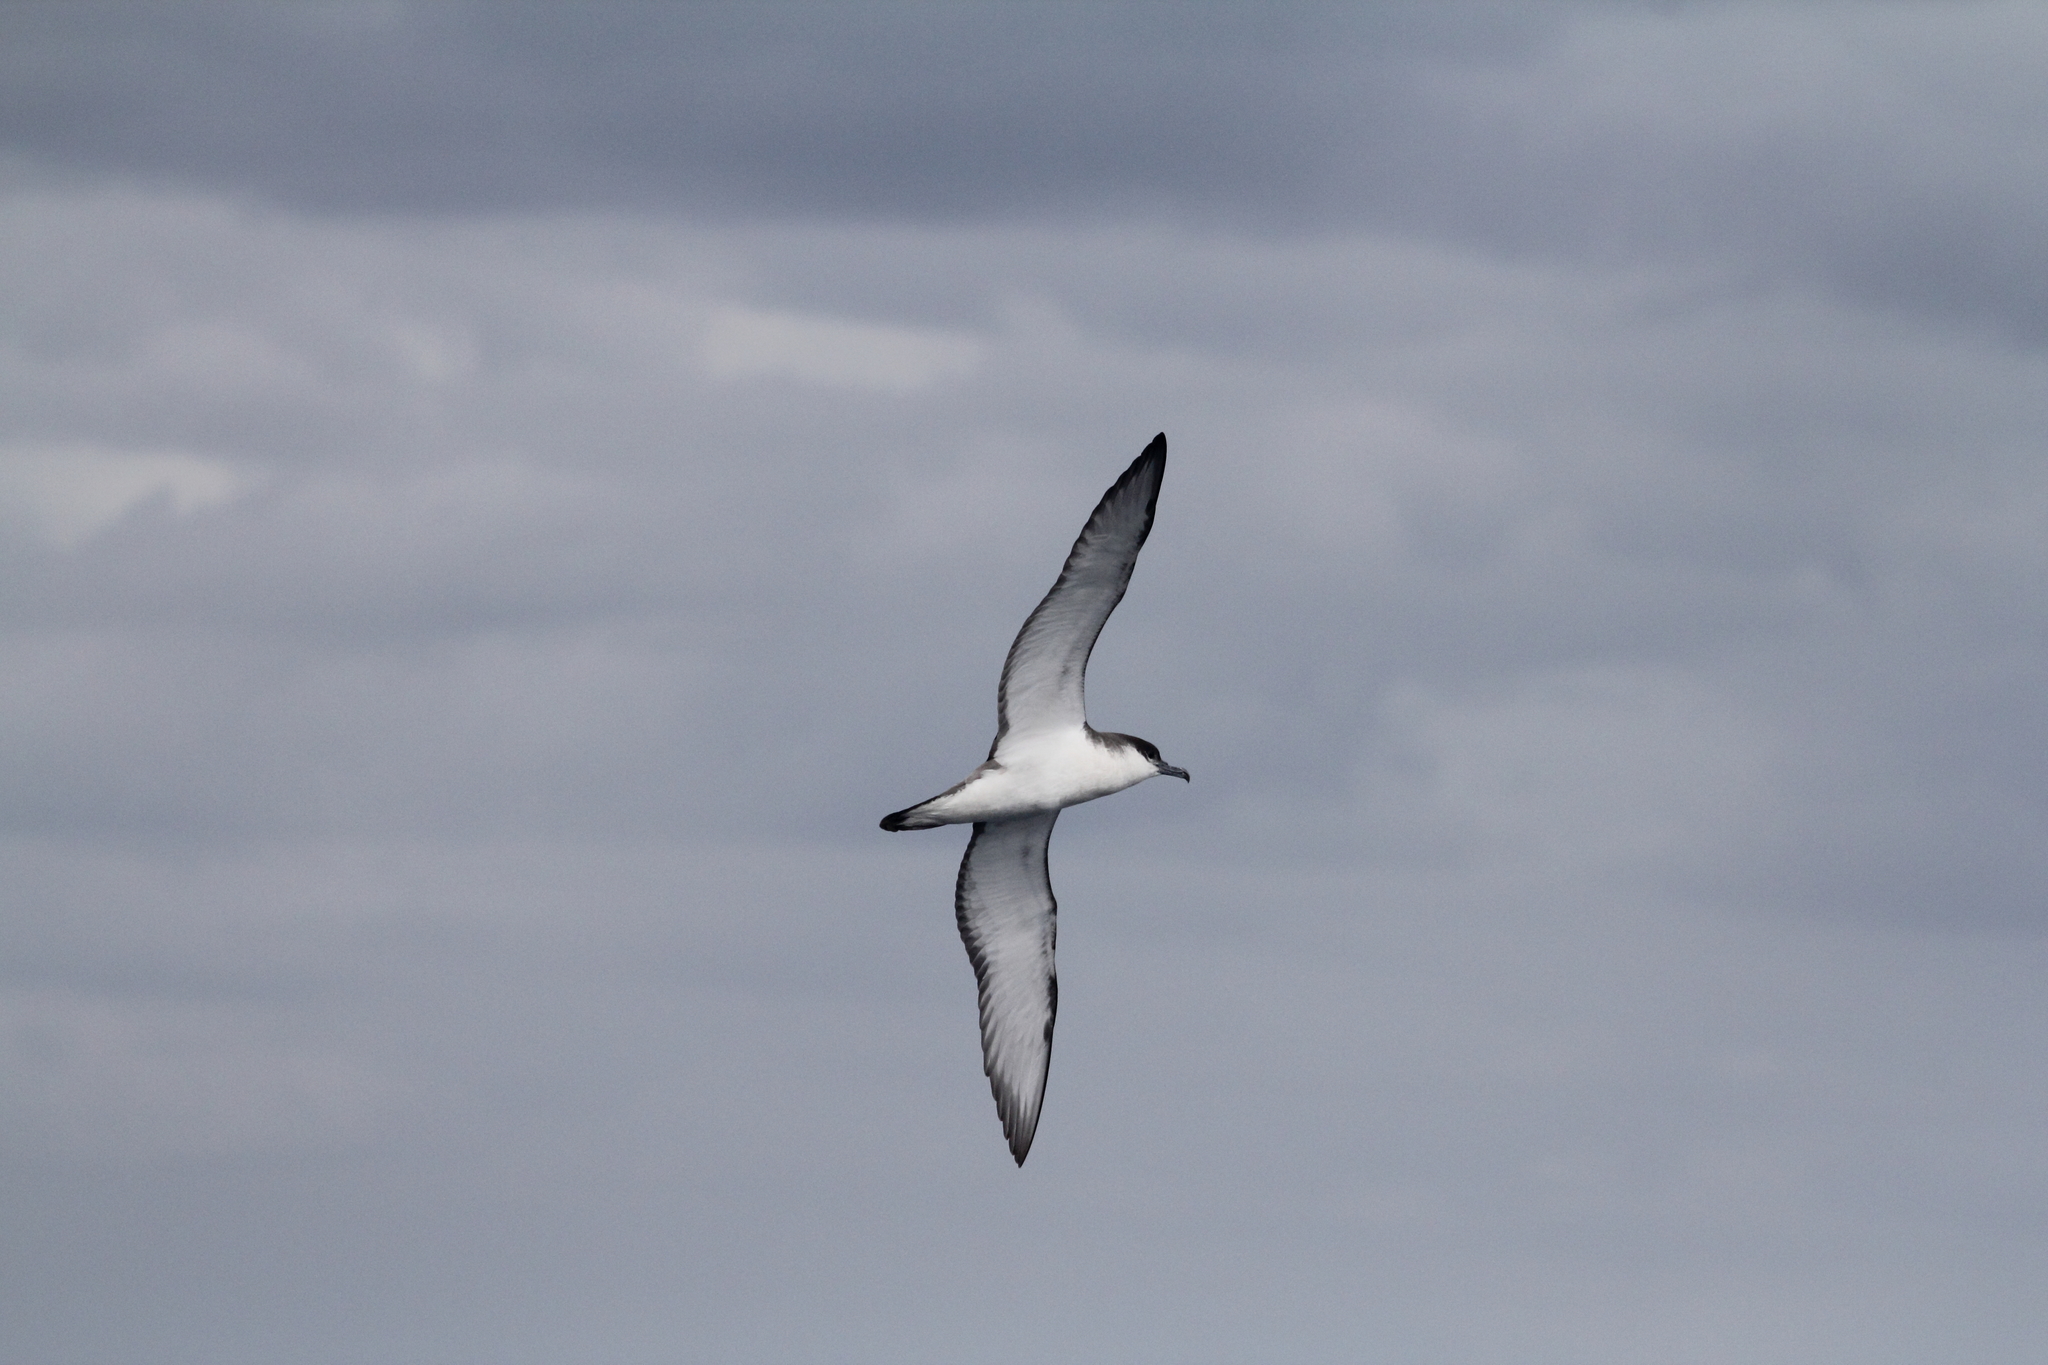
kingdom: Animalia
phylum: Chordata
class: Aves
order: Procellariiformes
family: Procellariidae
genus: Puffinus
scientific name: Puffinus bulleri
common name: Buller's shearwater
